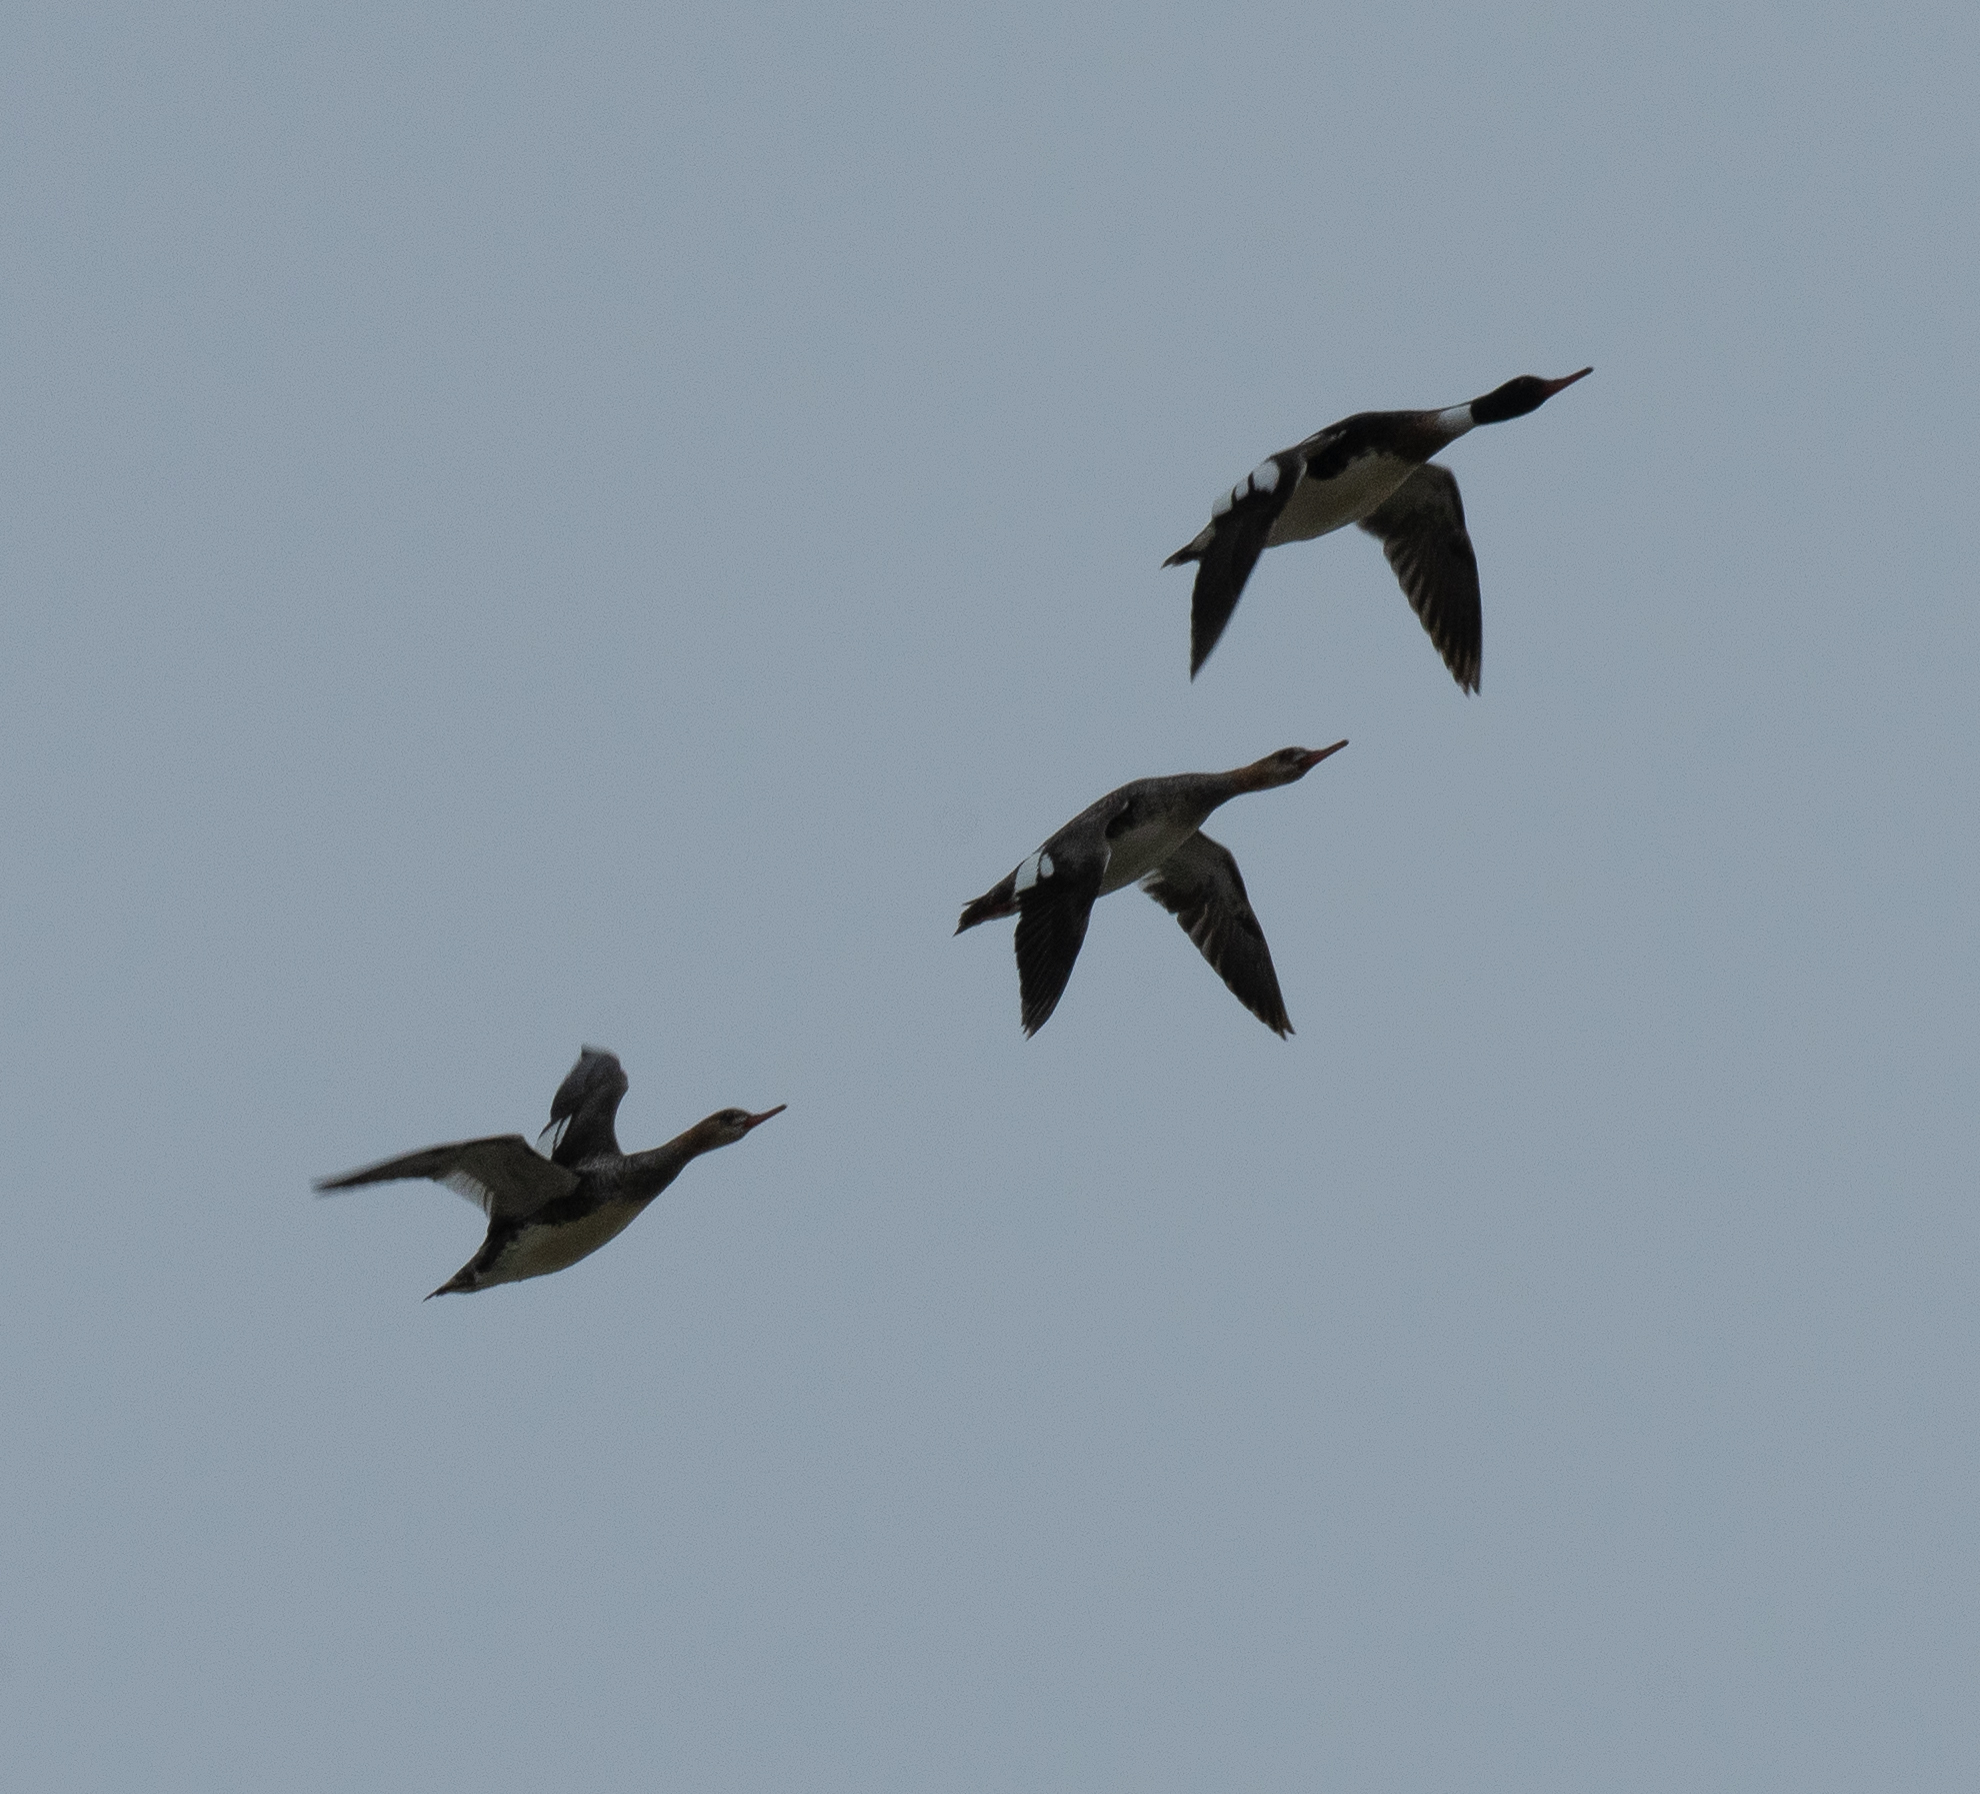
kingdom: Animalia
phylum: Chordata
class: Aves
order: Anseriformes
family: Anatidae
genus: Mergus
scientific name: Mergus serrator
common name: Red-breasted merganser
